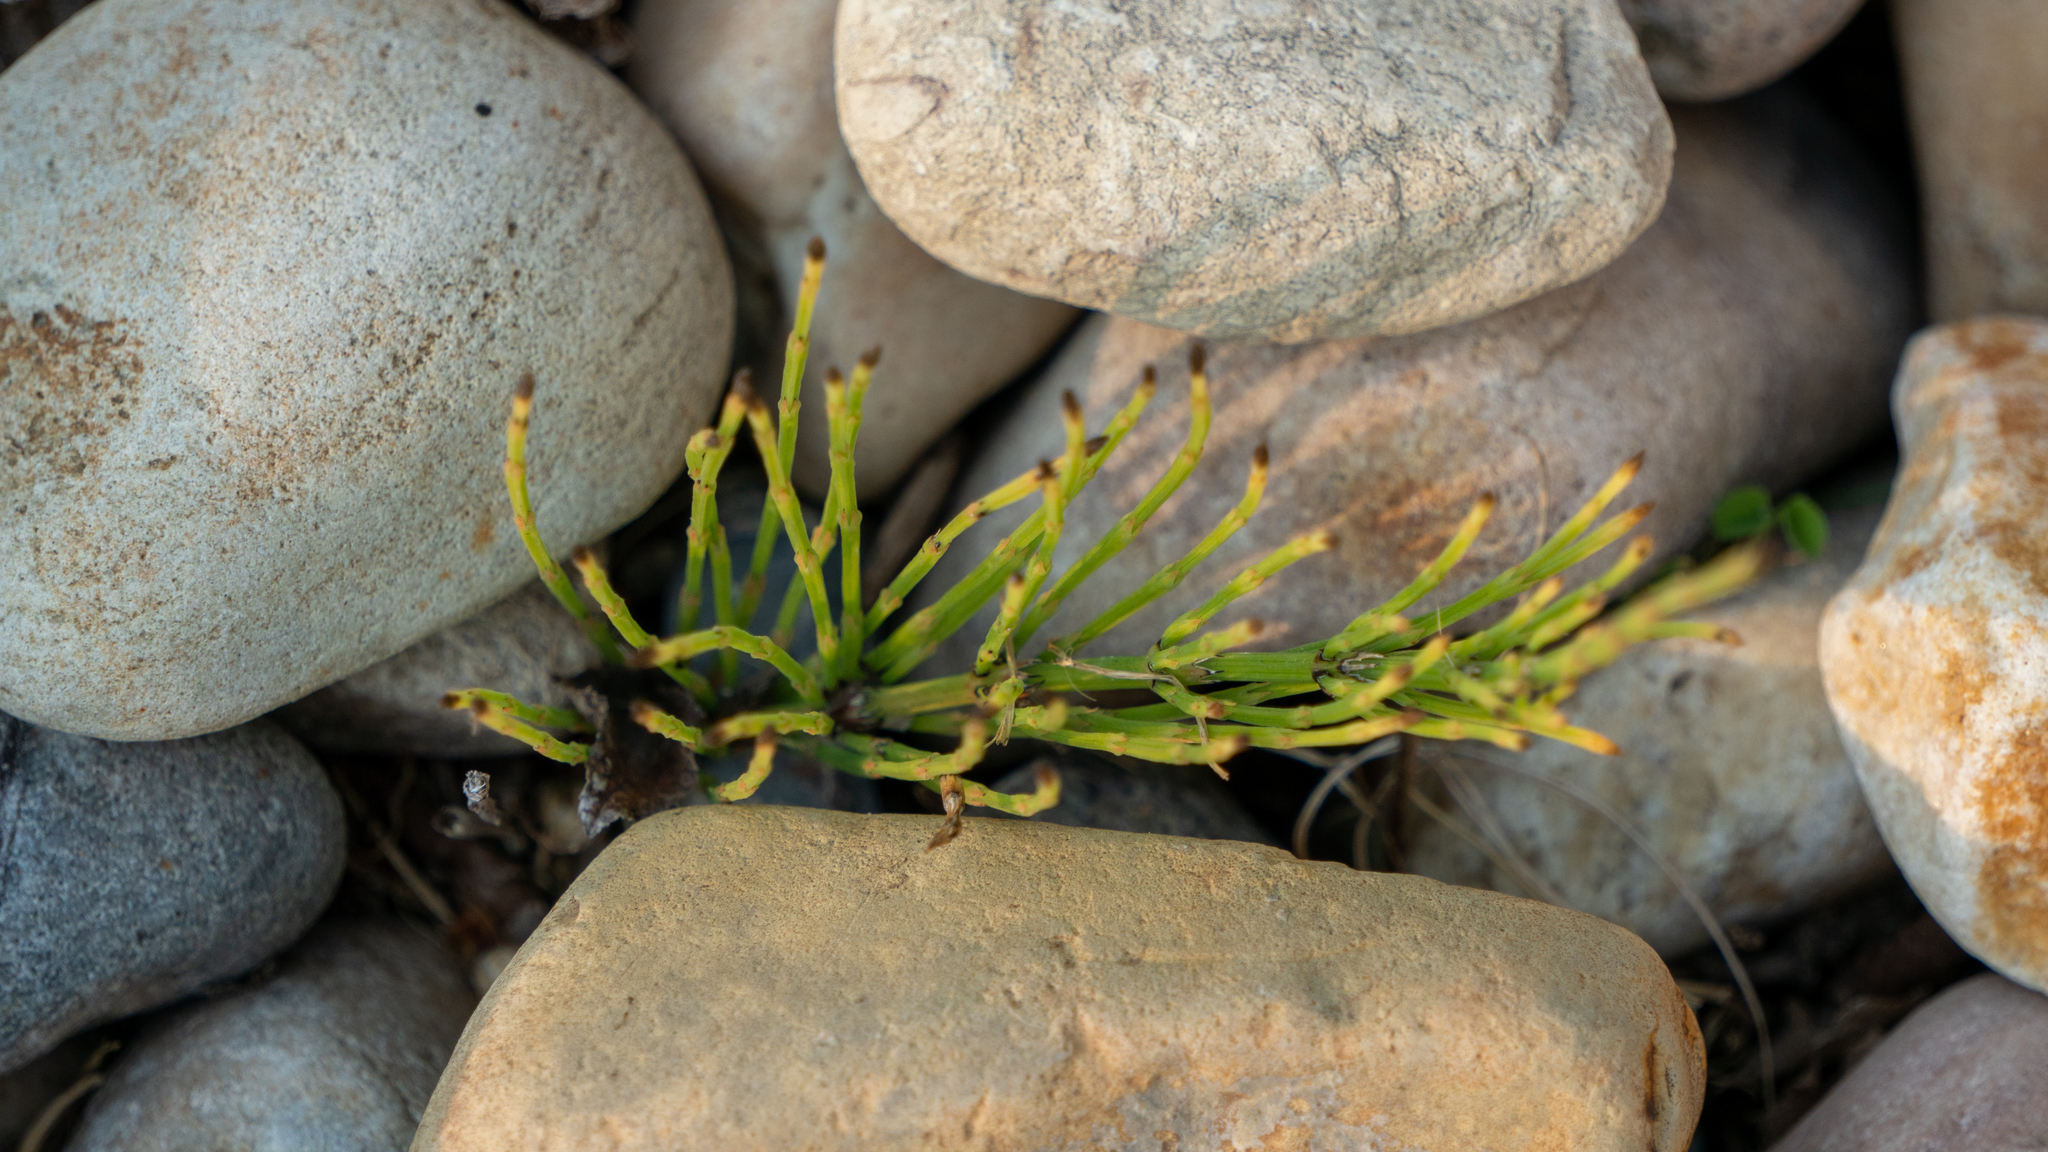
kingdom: Plantae
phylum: Tracheophyta
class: Polypodiopsida
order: Equisetales
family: Equisetaceae
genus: Equisetum
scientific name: Equisetum arvense
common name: Field horsetail
